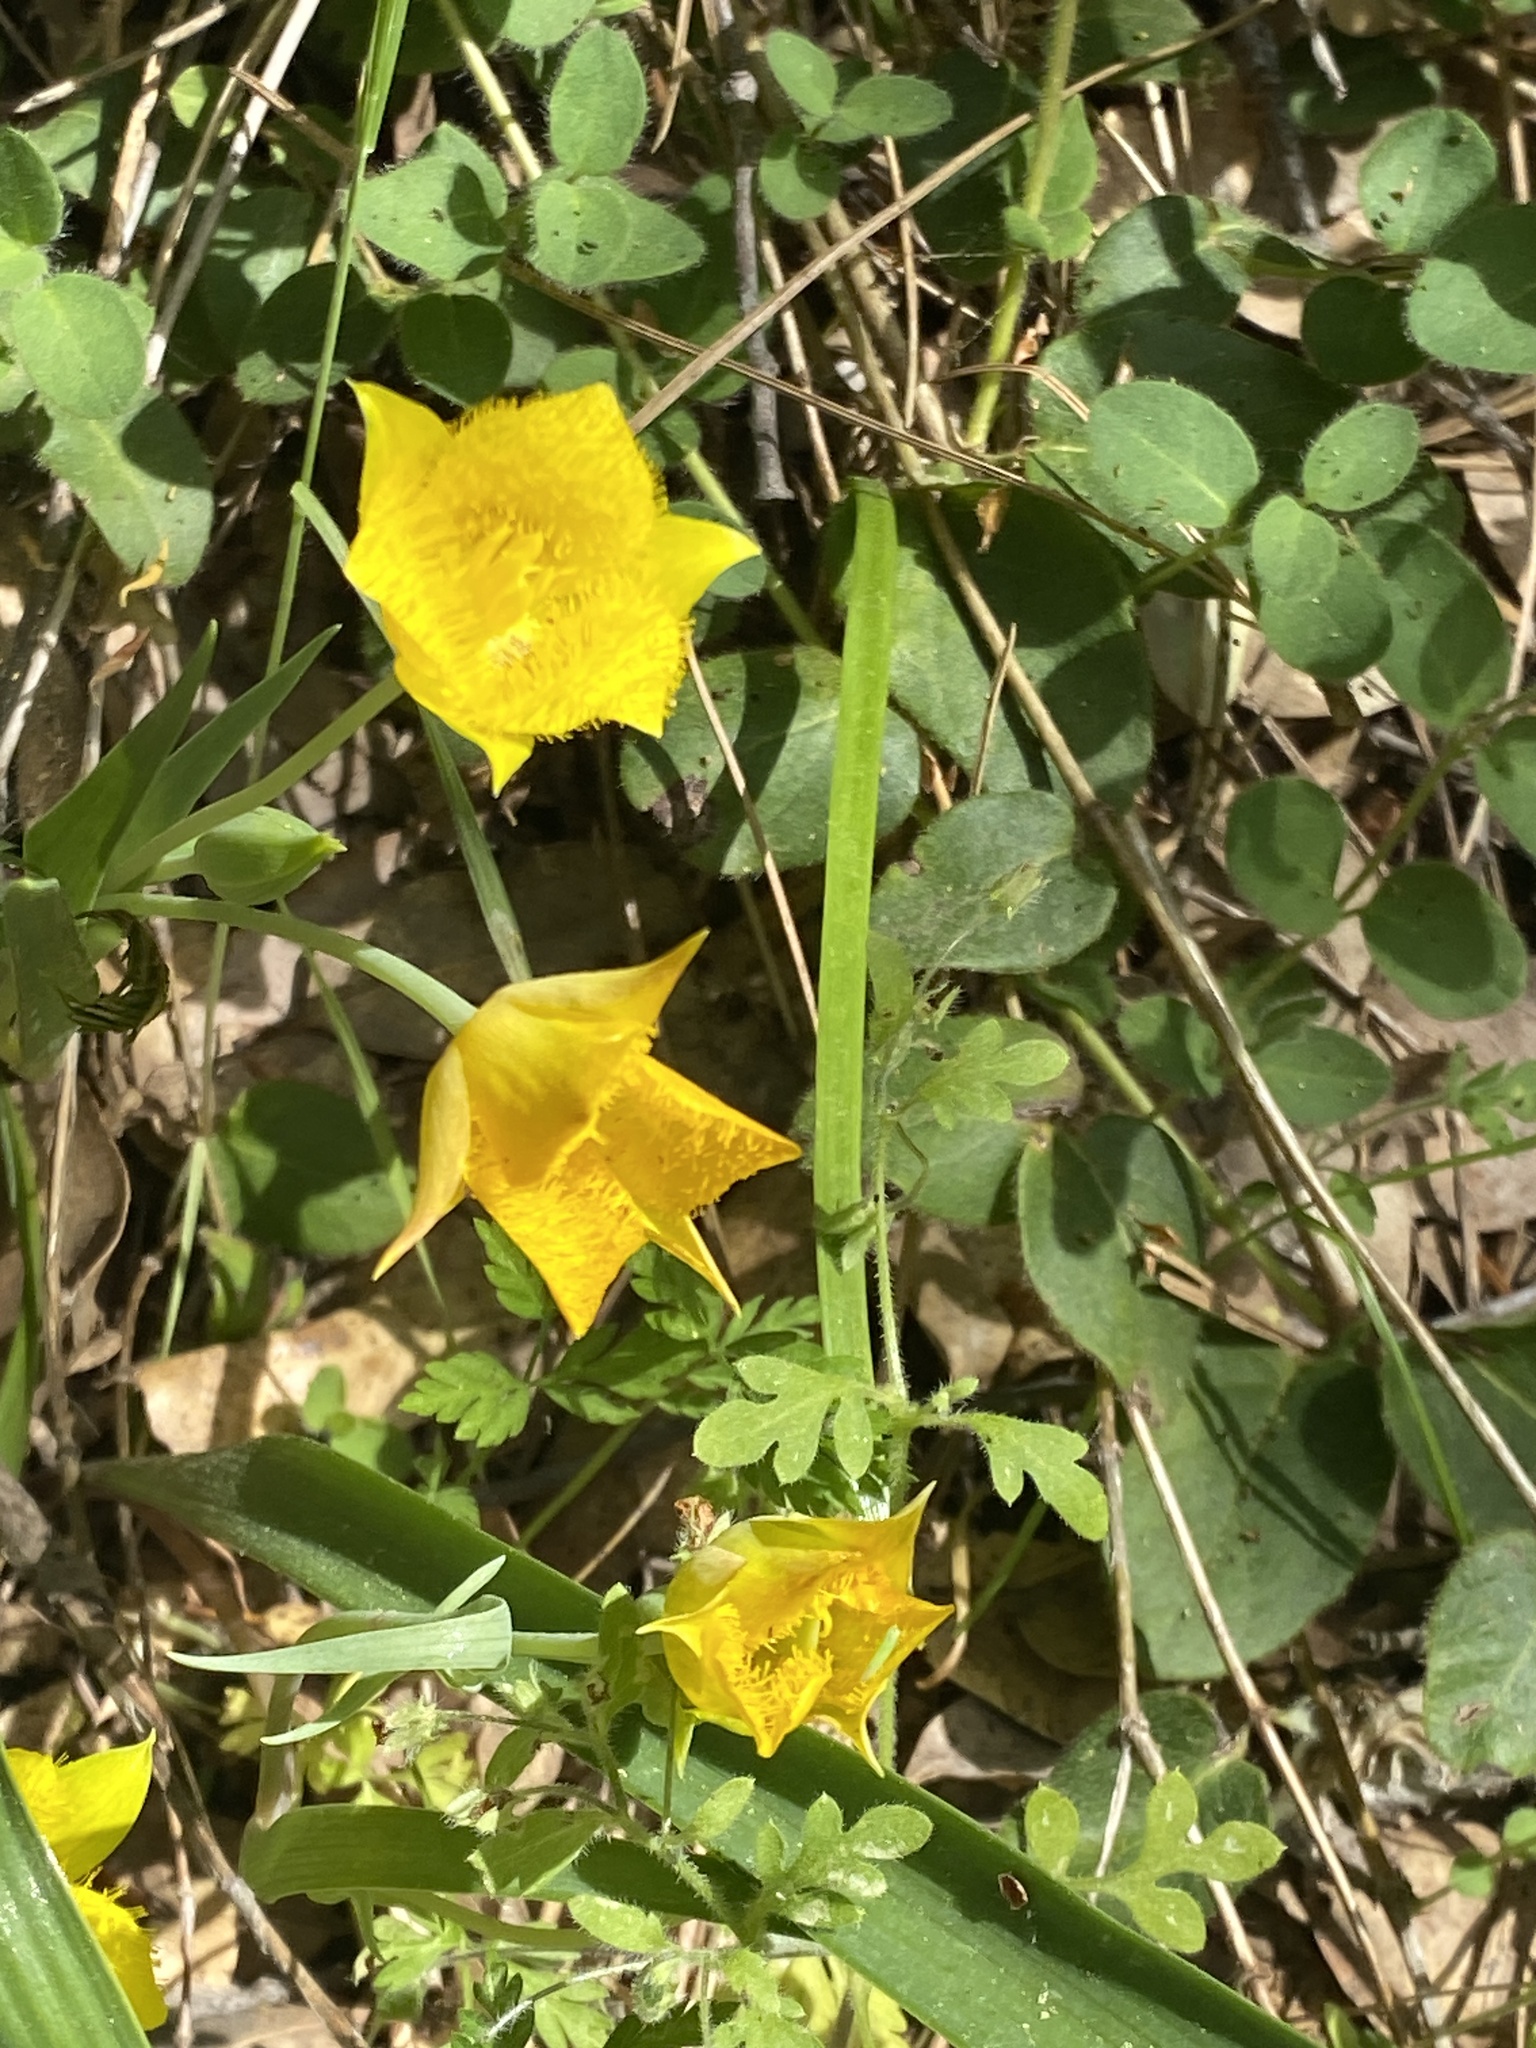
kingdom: Plantae
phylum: Tracheophyta
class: Liliopsida
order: Liliales
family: Liliaceae
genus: Calochortus
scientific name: Calochortus monophyllus
